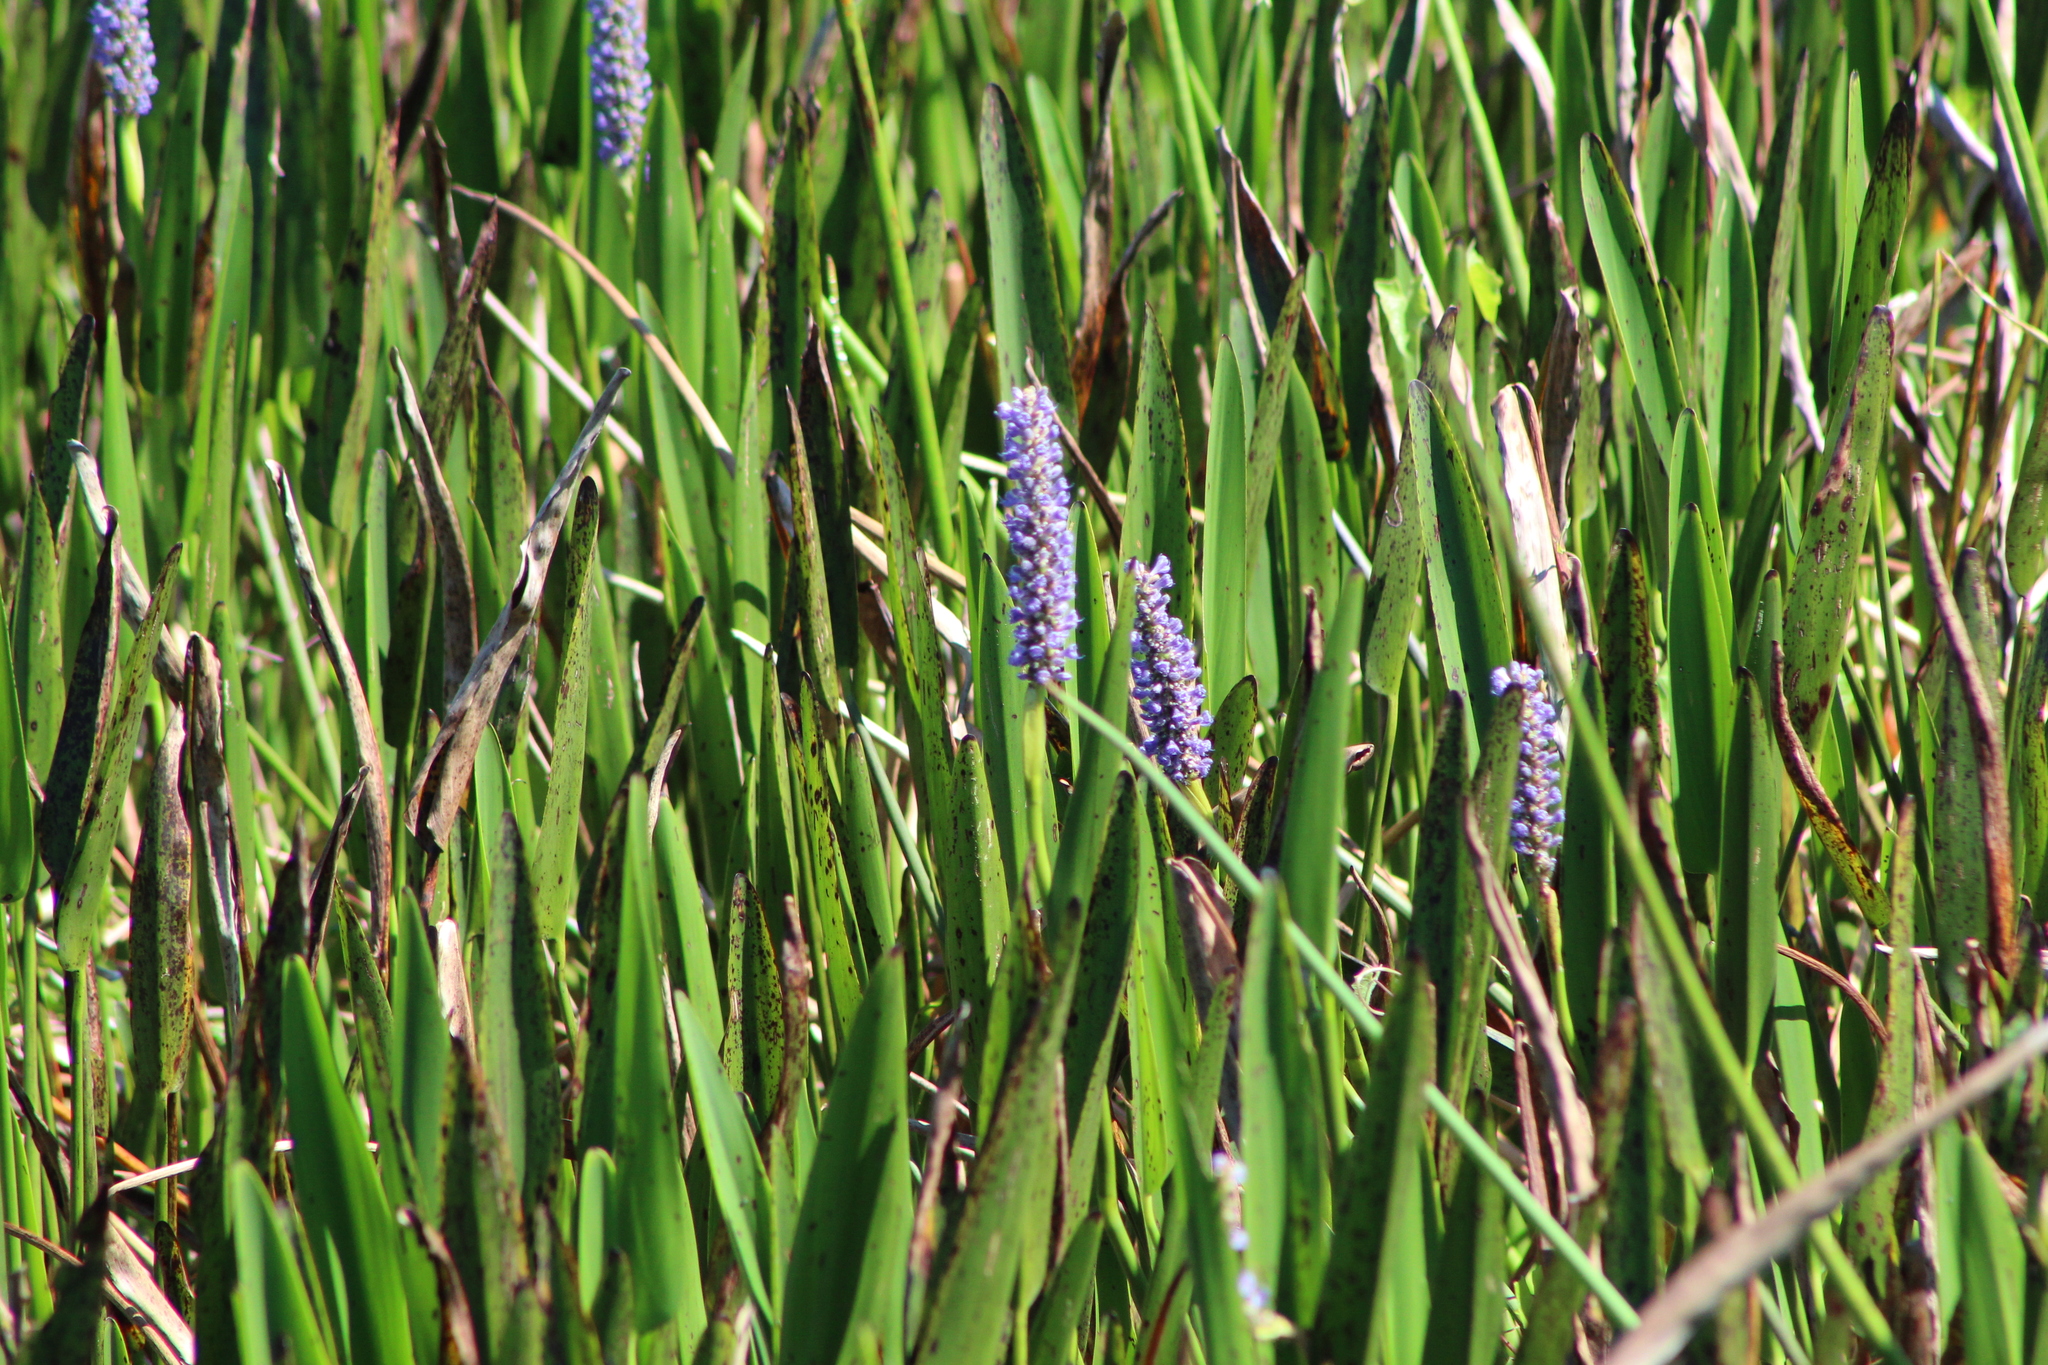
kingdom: Plantae
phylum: Tracheophyta
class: Liliopsida
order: Commelinales
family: Pontederiaceae
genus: Pontederia
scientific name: Pontederia cordata
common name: Pickerelweed
